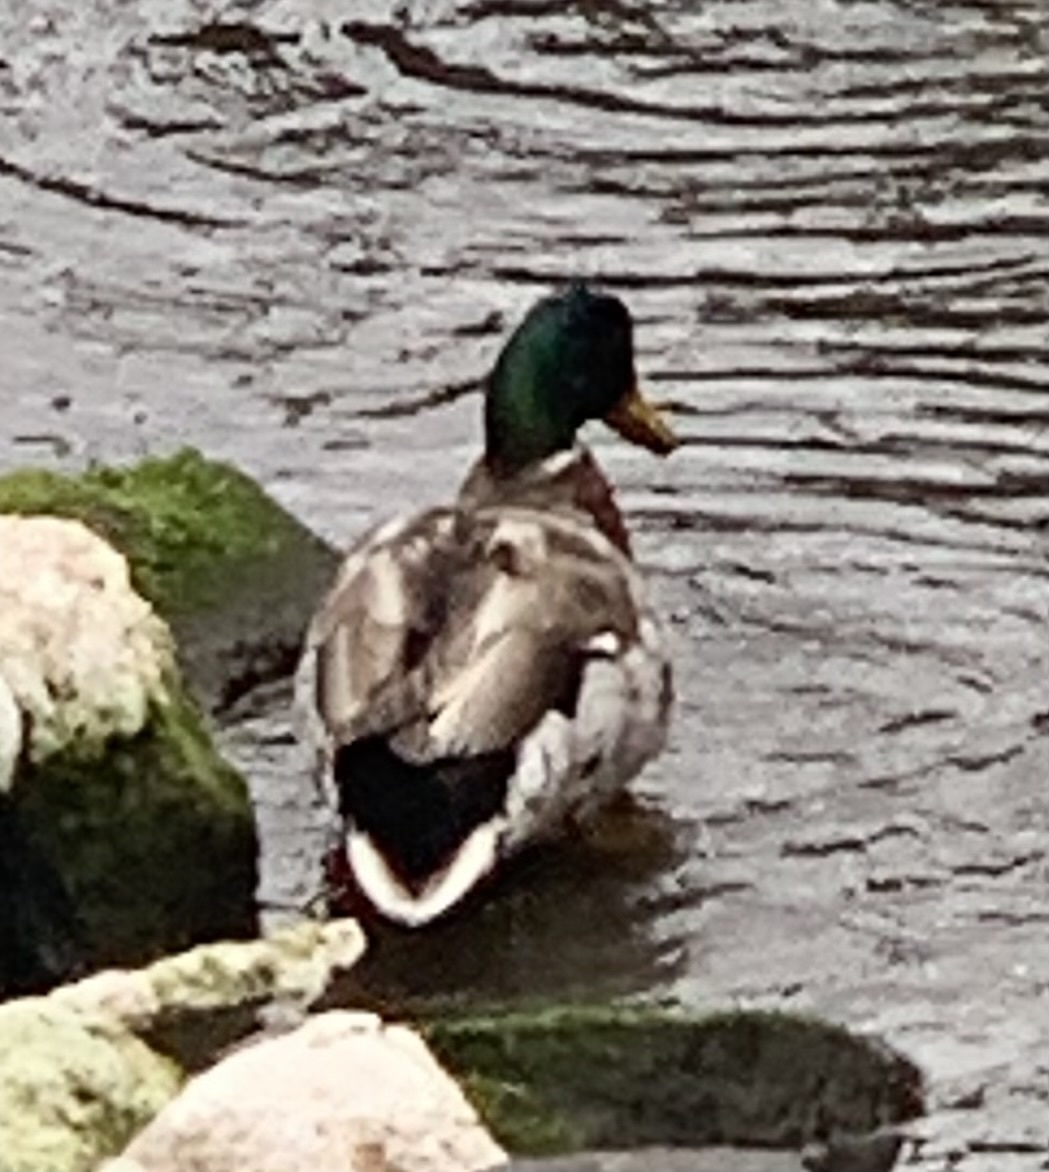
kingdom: Animalia
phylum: Chordata
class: Aves
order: Anseriformes
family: Anatidae
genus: Anas
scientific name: Anas platyrhynchos
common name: Mallard
